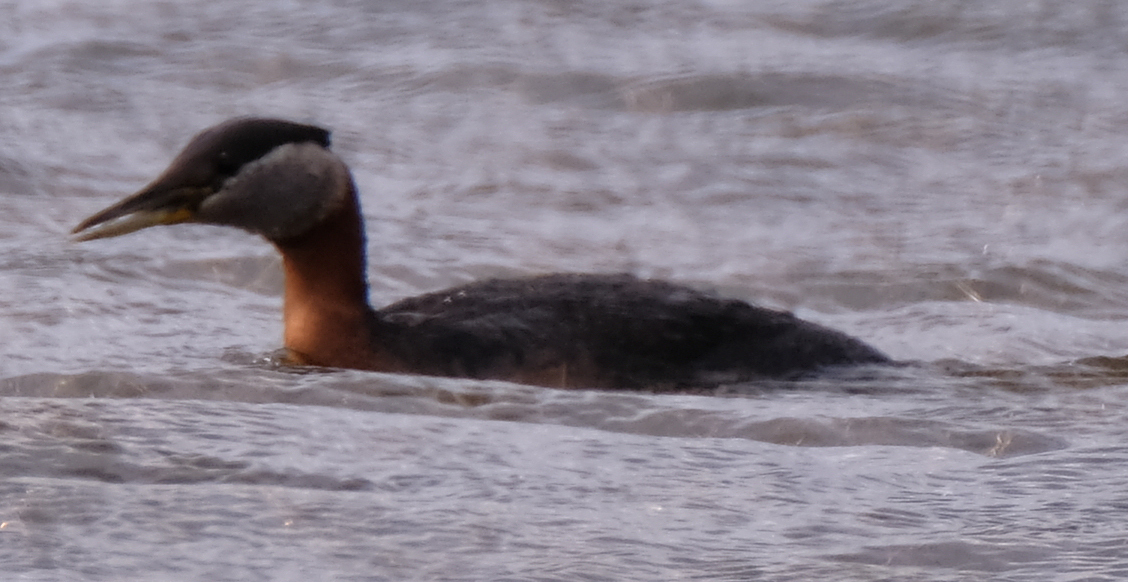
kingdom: Animalia
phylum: Chordata
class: Aves
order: Podicipediformes
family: Podicipedidae
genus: Podiceps
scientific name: Podiceps grisegena
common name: Red-necked grebe
